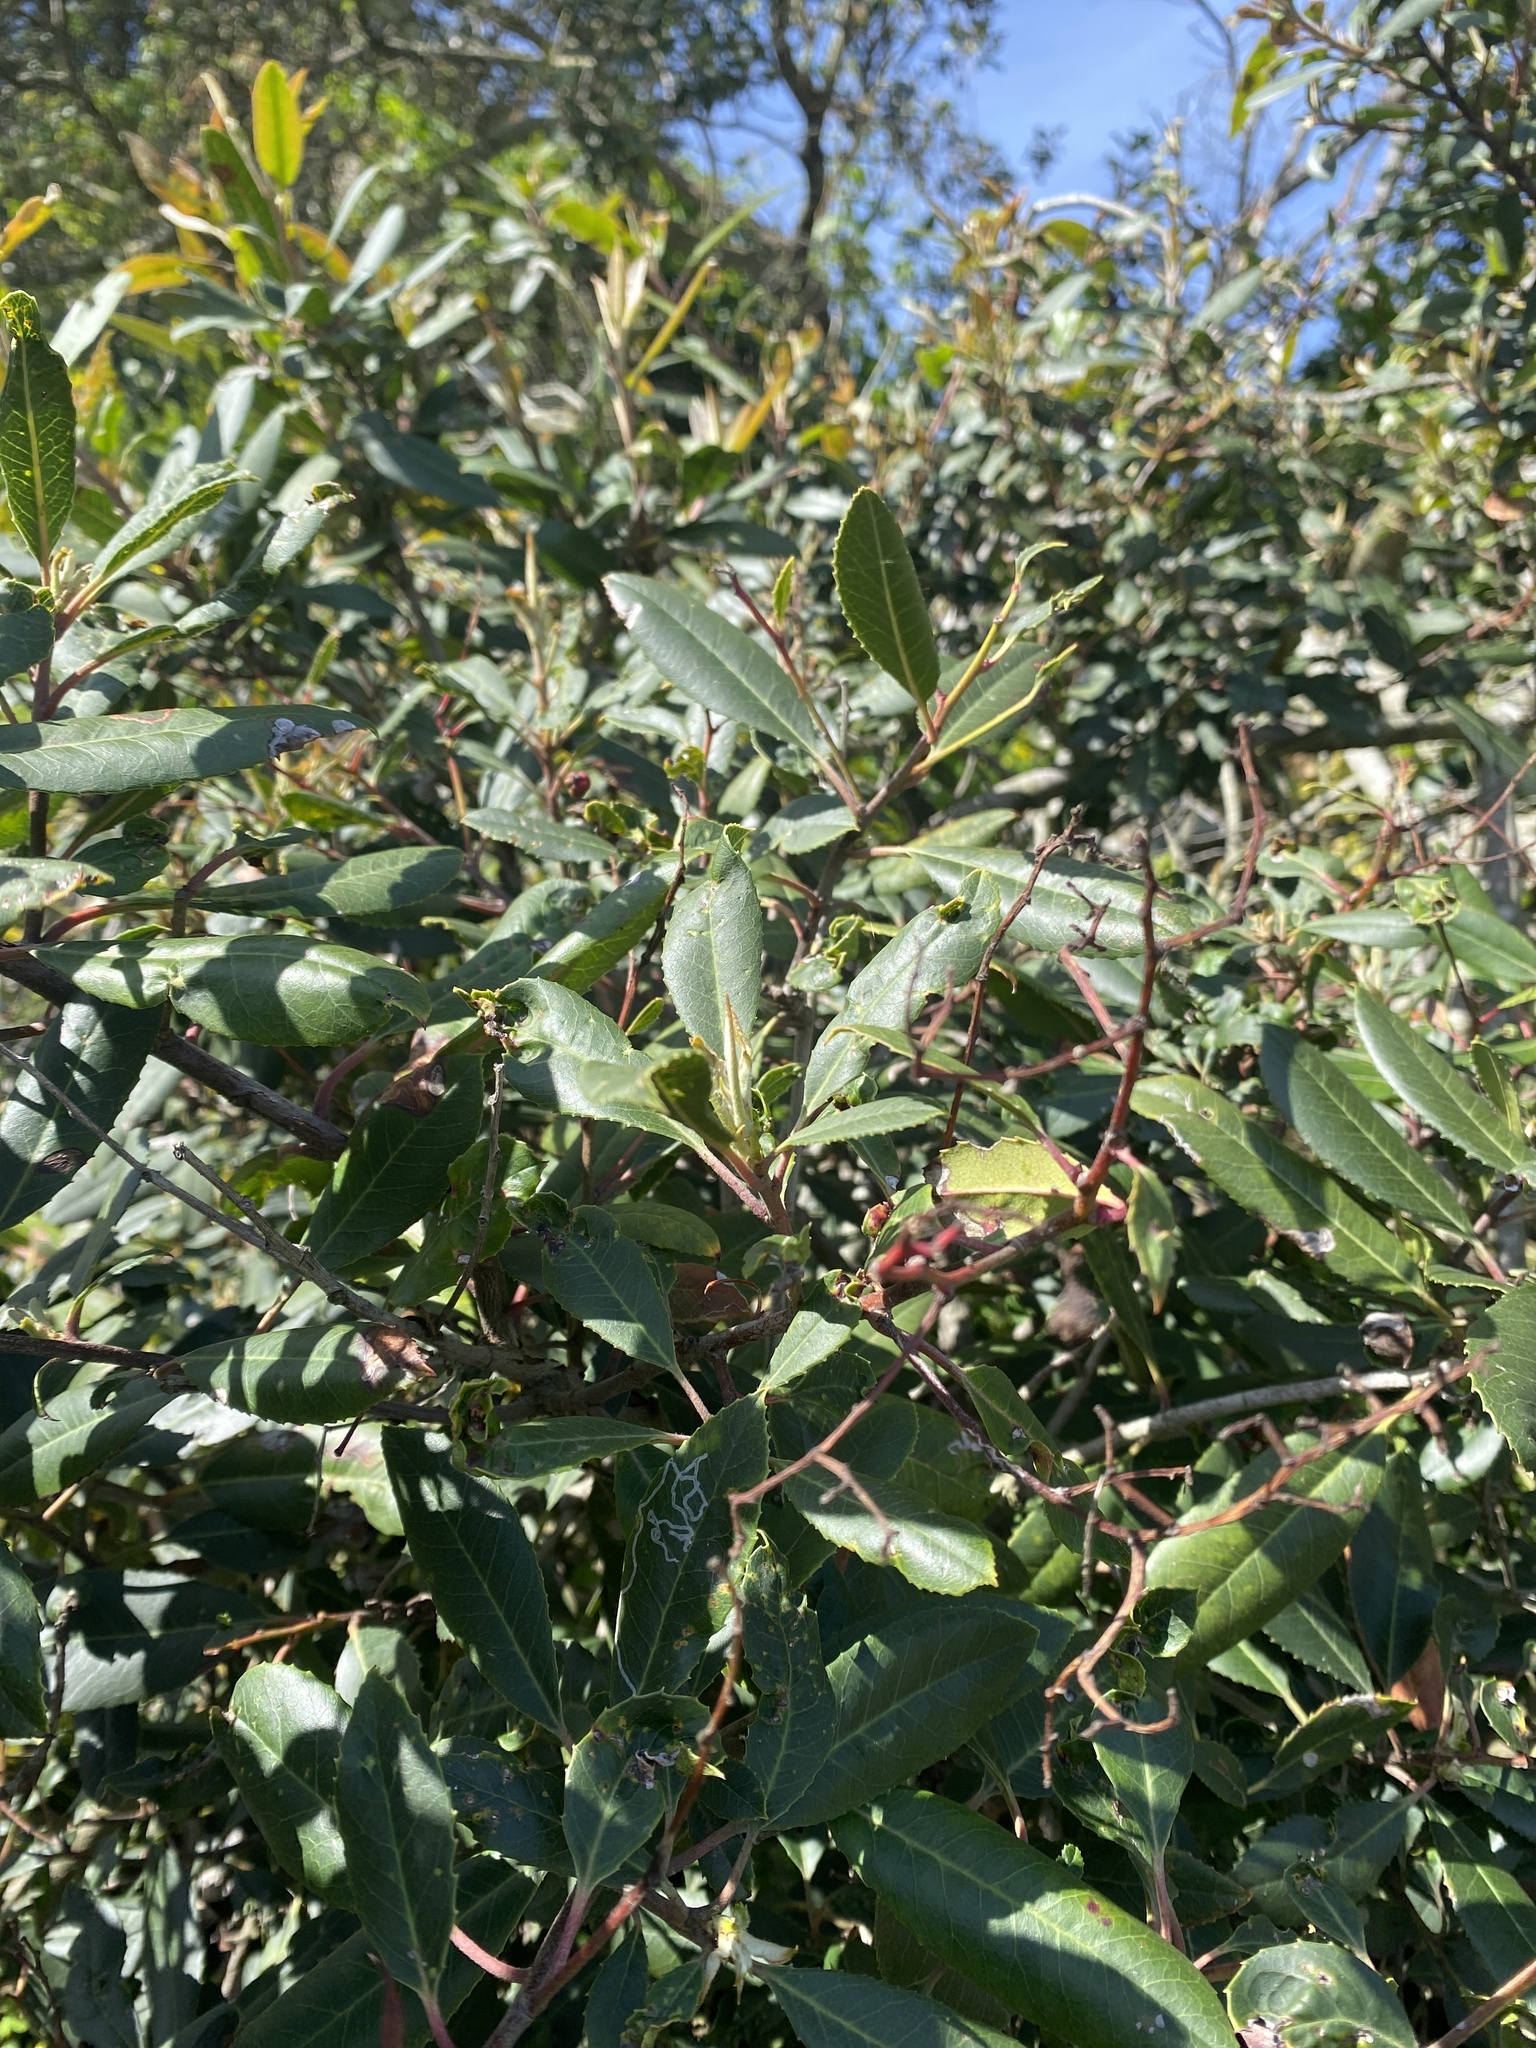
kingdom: Plantae
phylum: Tracheophyta
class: Magnoliopsida
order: Rosales
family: Rosaceae
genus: Heteromeles
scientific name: Heteromeles arbutifolia
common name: California-holly
